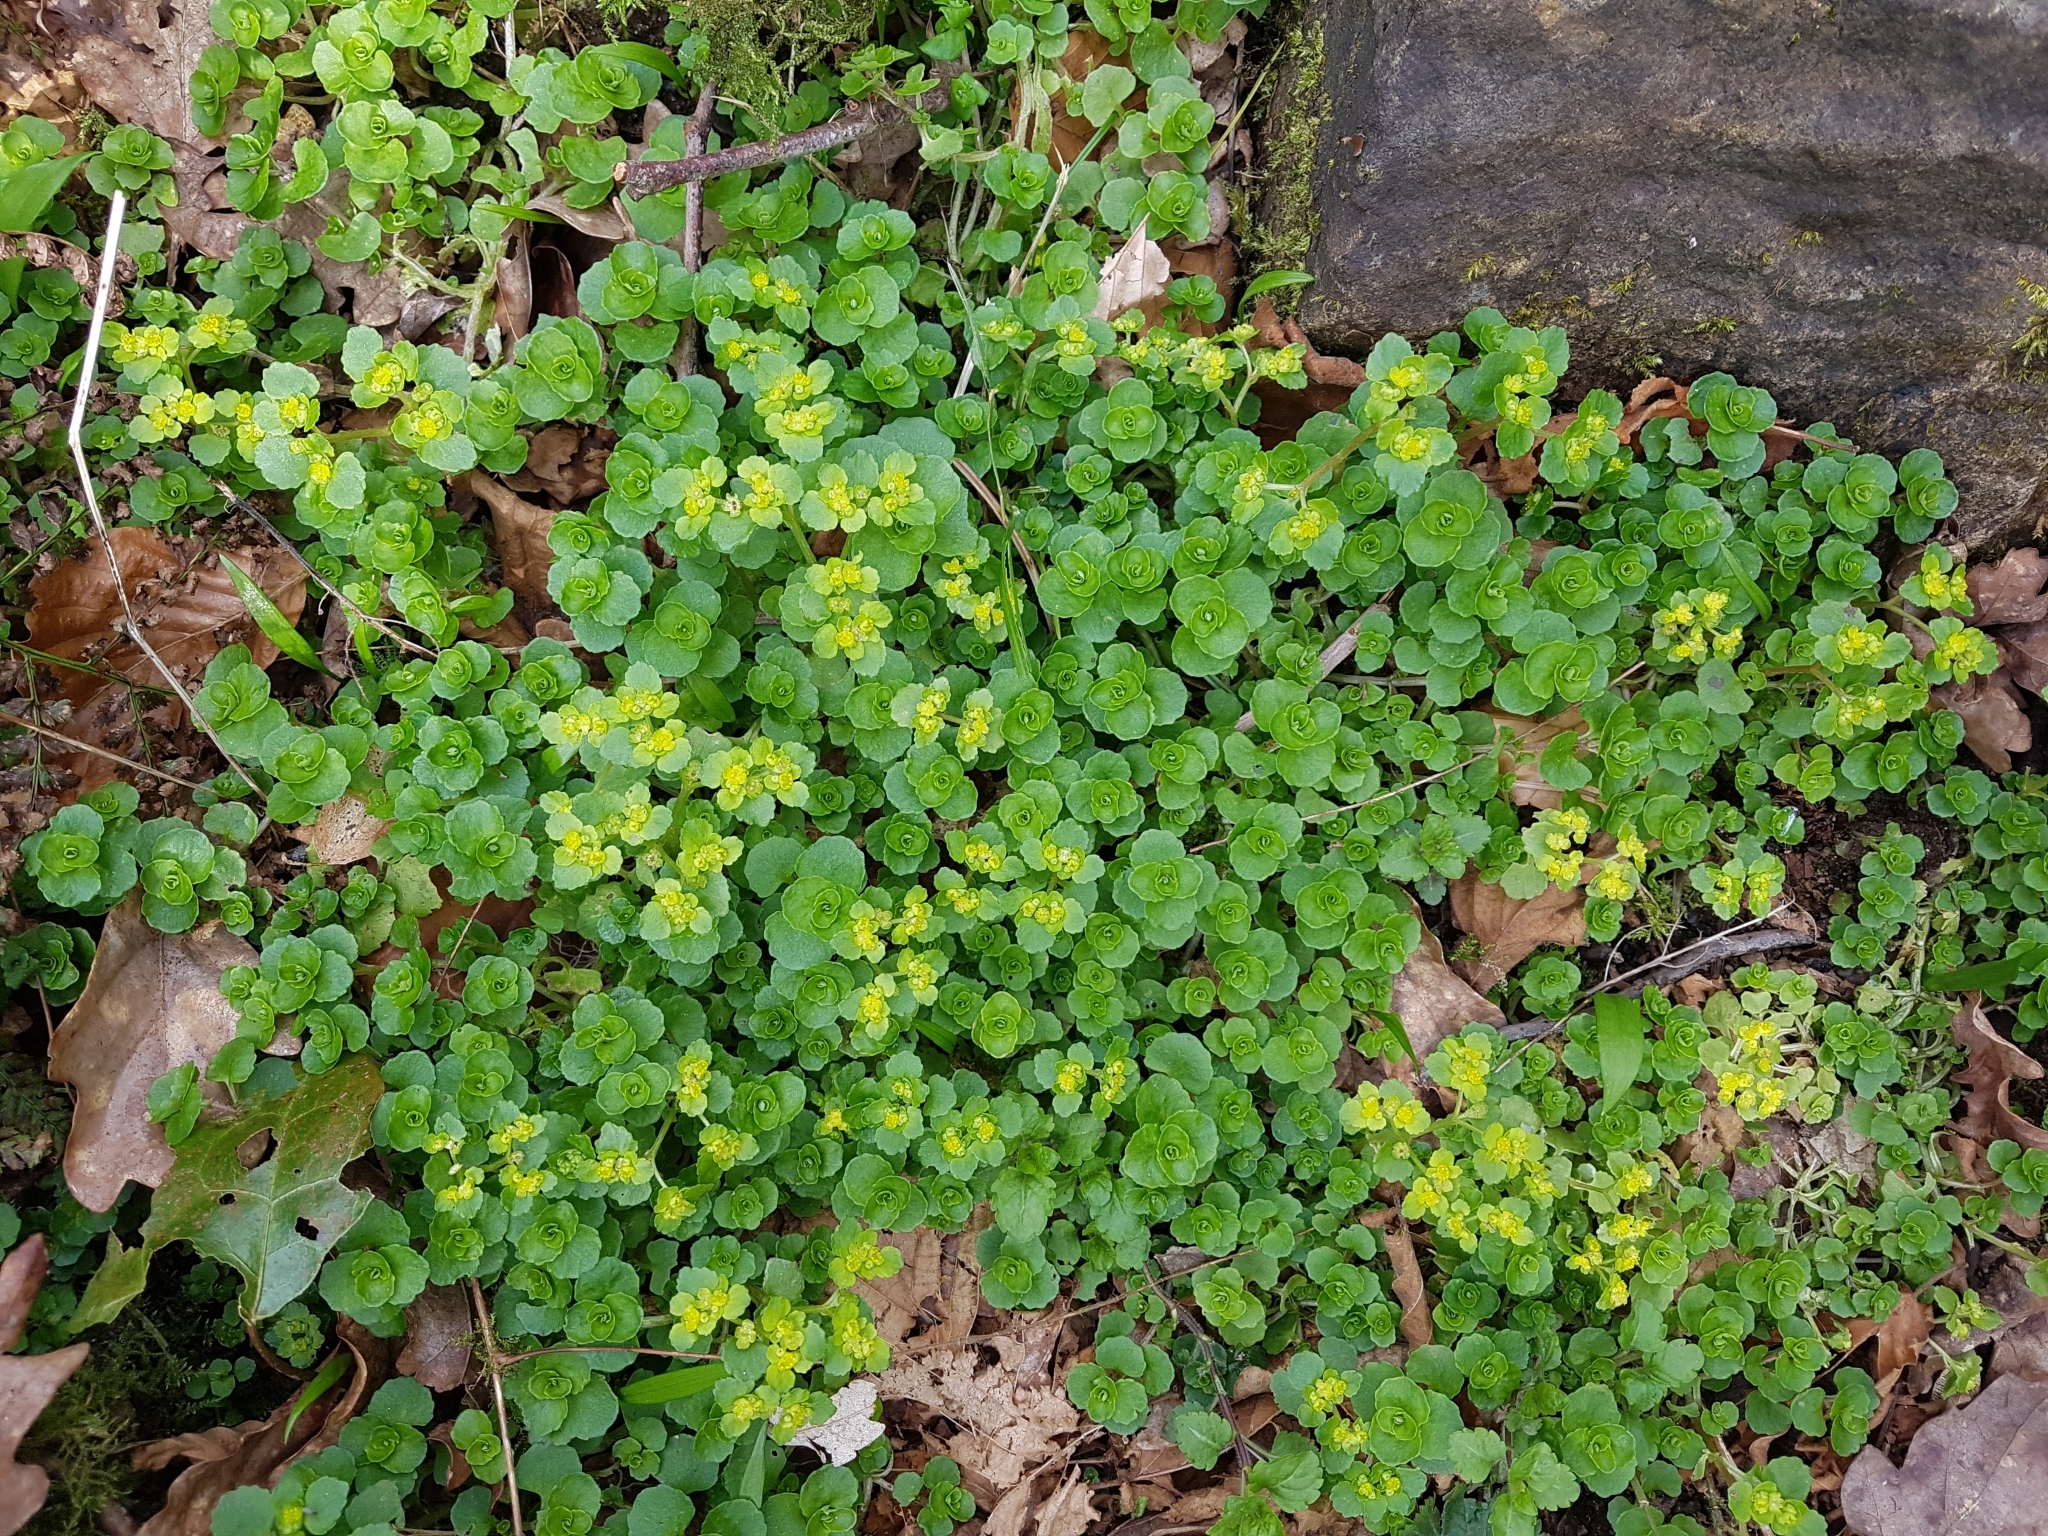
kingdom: Plantae
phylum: Tracheophyta
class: Magnoliopsida
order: Saxifragales
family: Saxifragaceae
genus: Chrysosplenium
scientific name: Chrysosplenium oppositifolium
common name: Opposite-leaved golden-saxifrage
